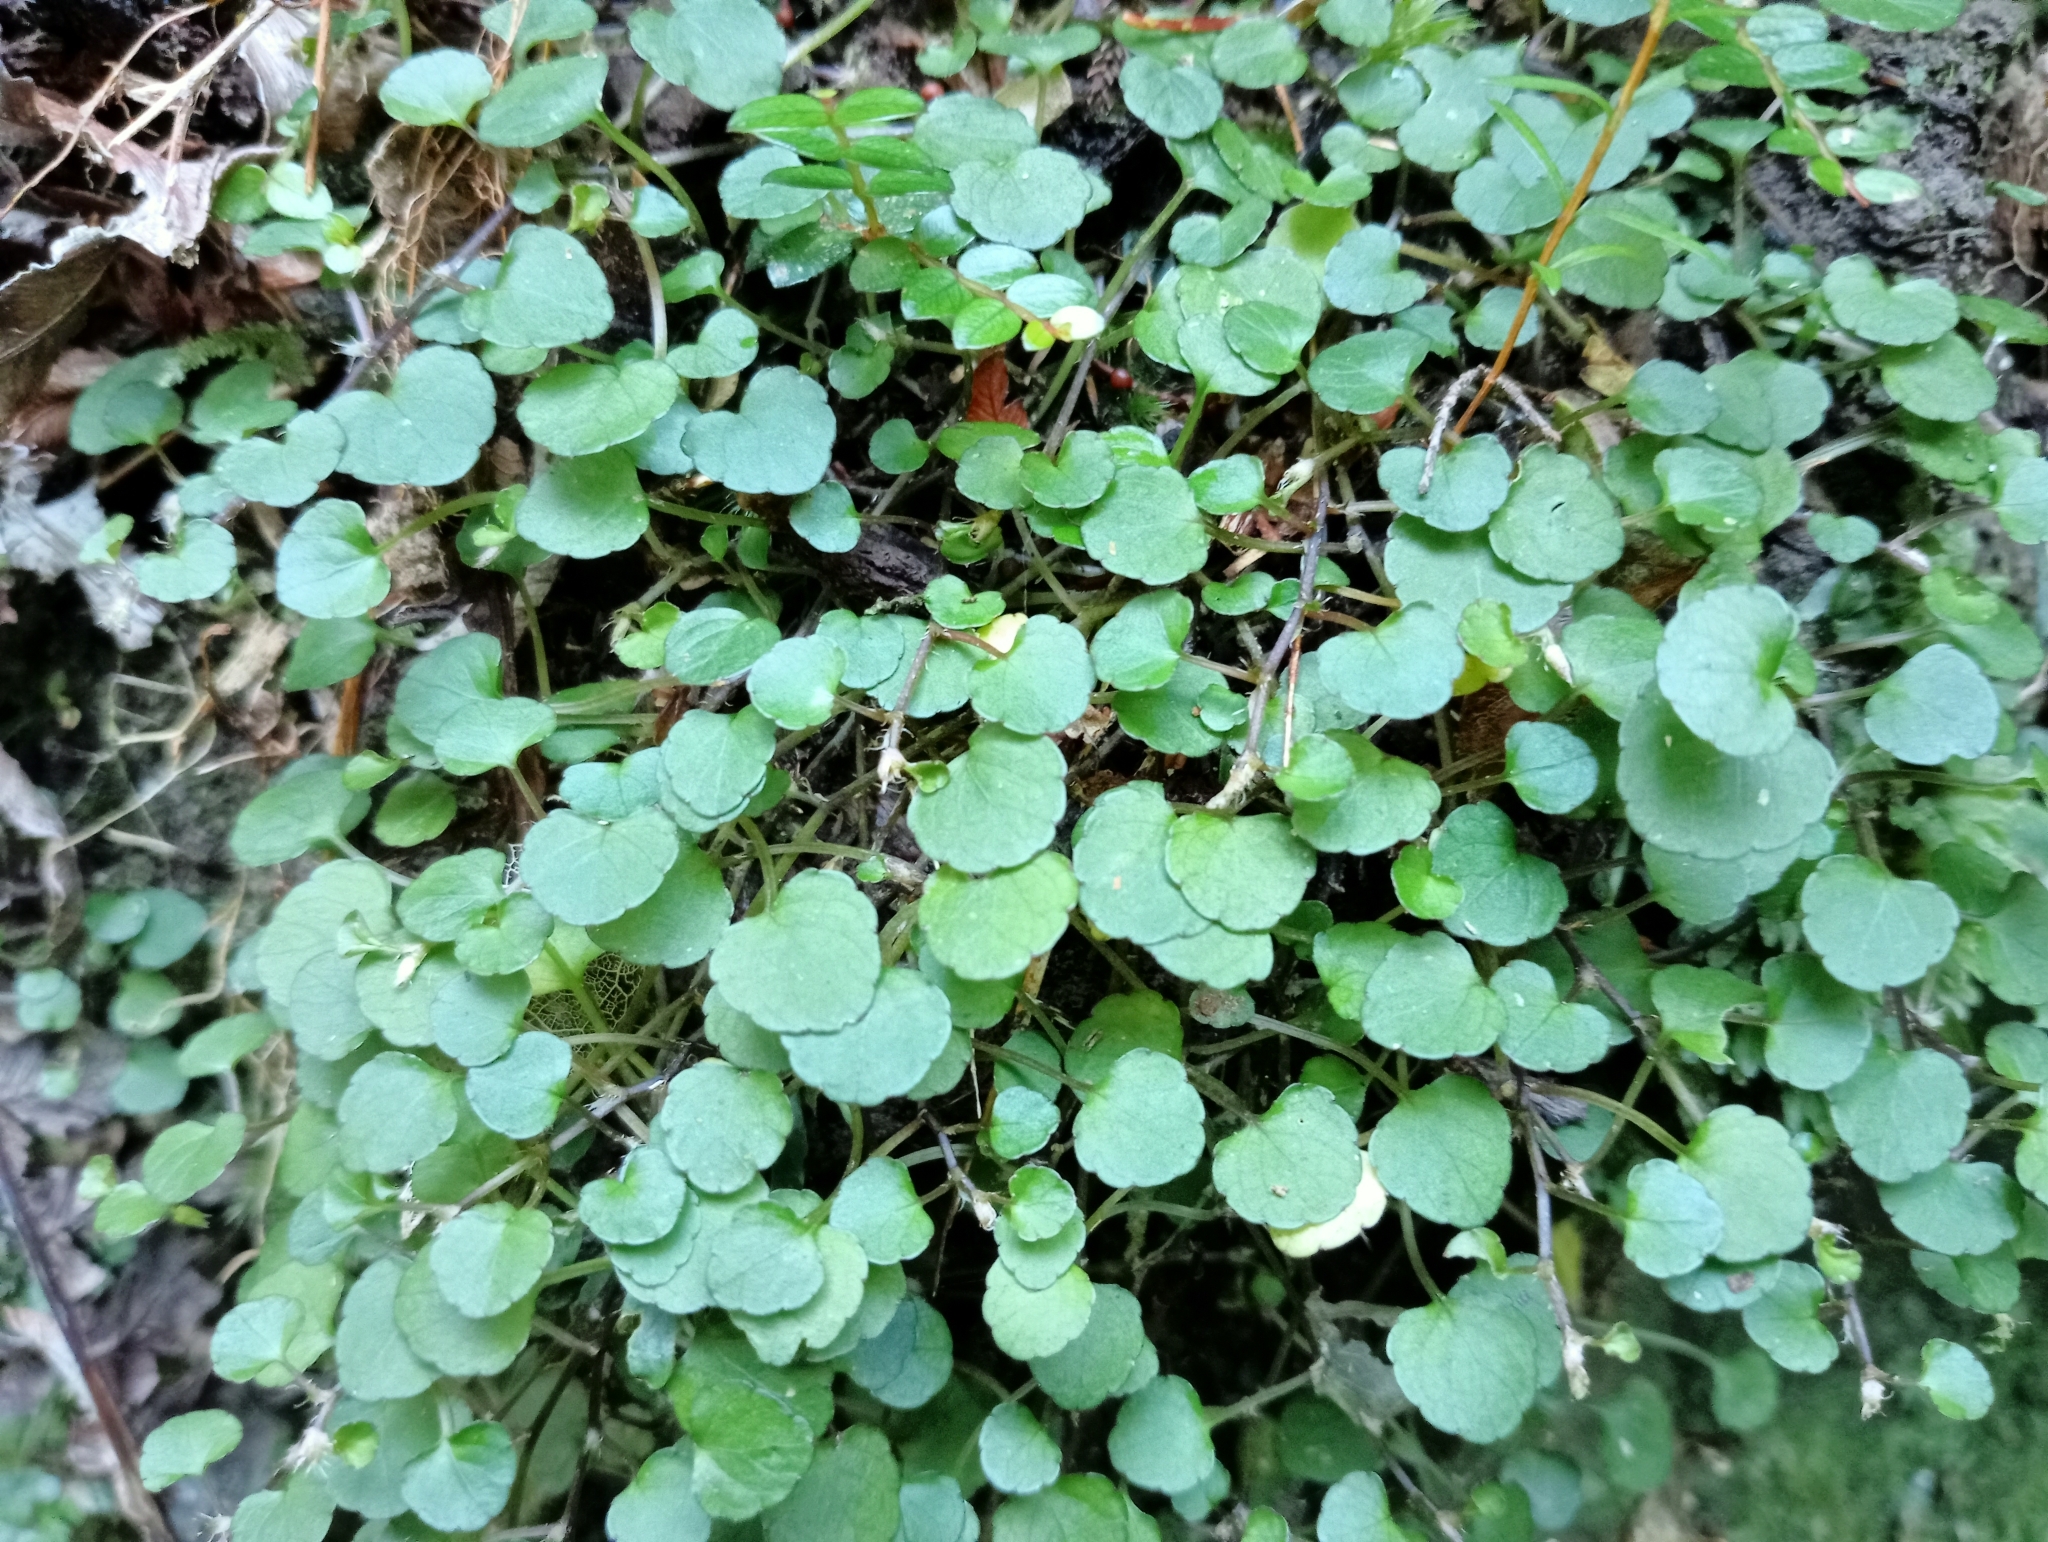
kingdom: Plantae
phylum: Tracheophyta
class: Magnoliopsida
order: Malpighiales
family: Violaceae
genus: Viola
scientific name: Viola filicaulis
